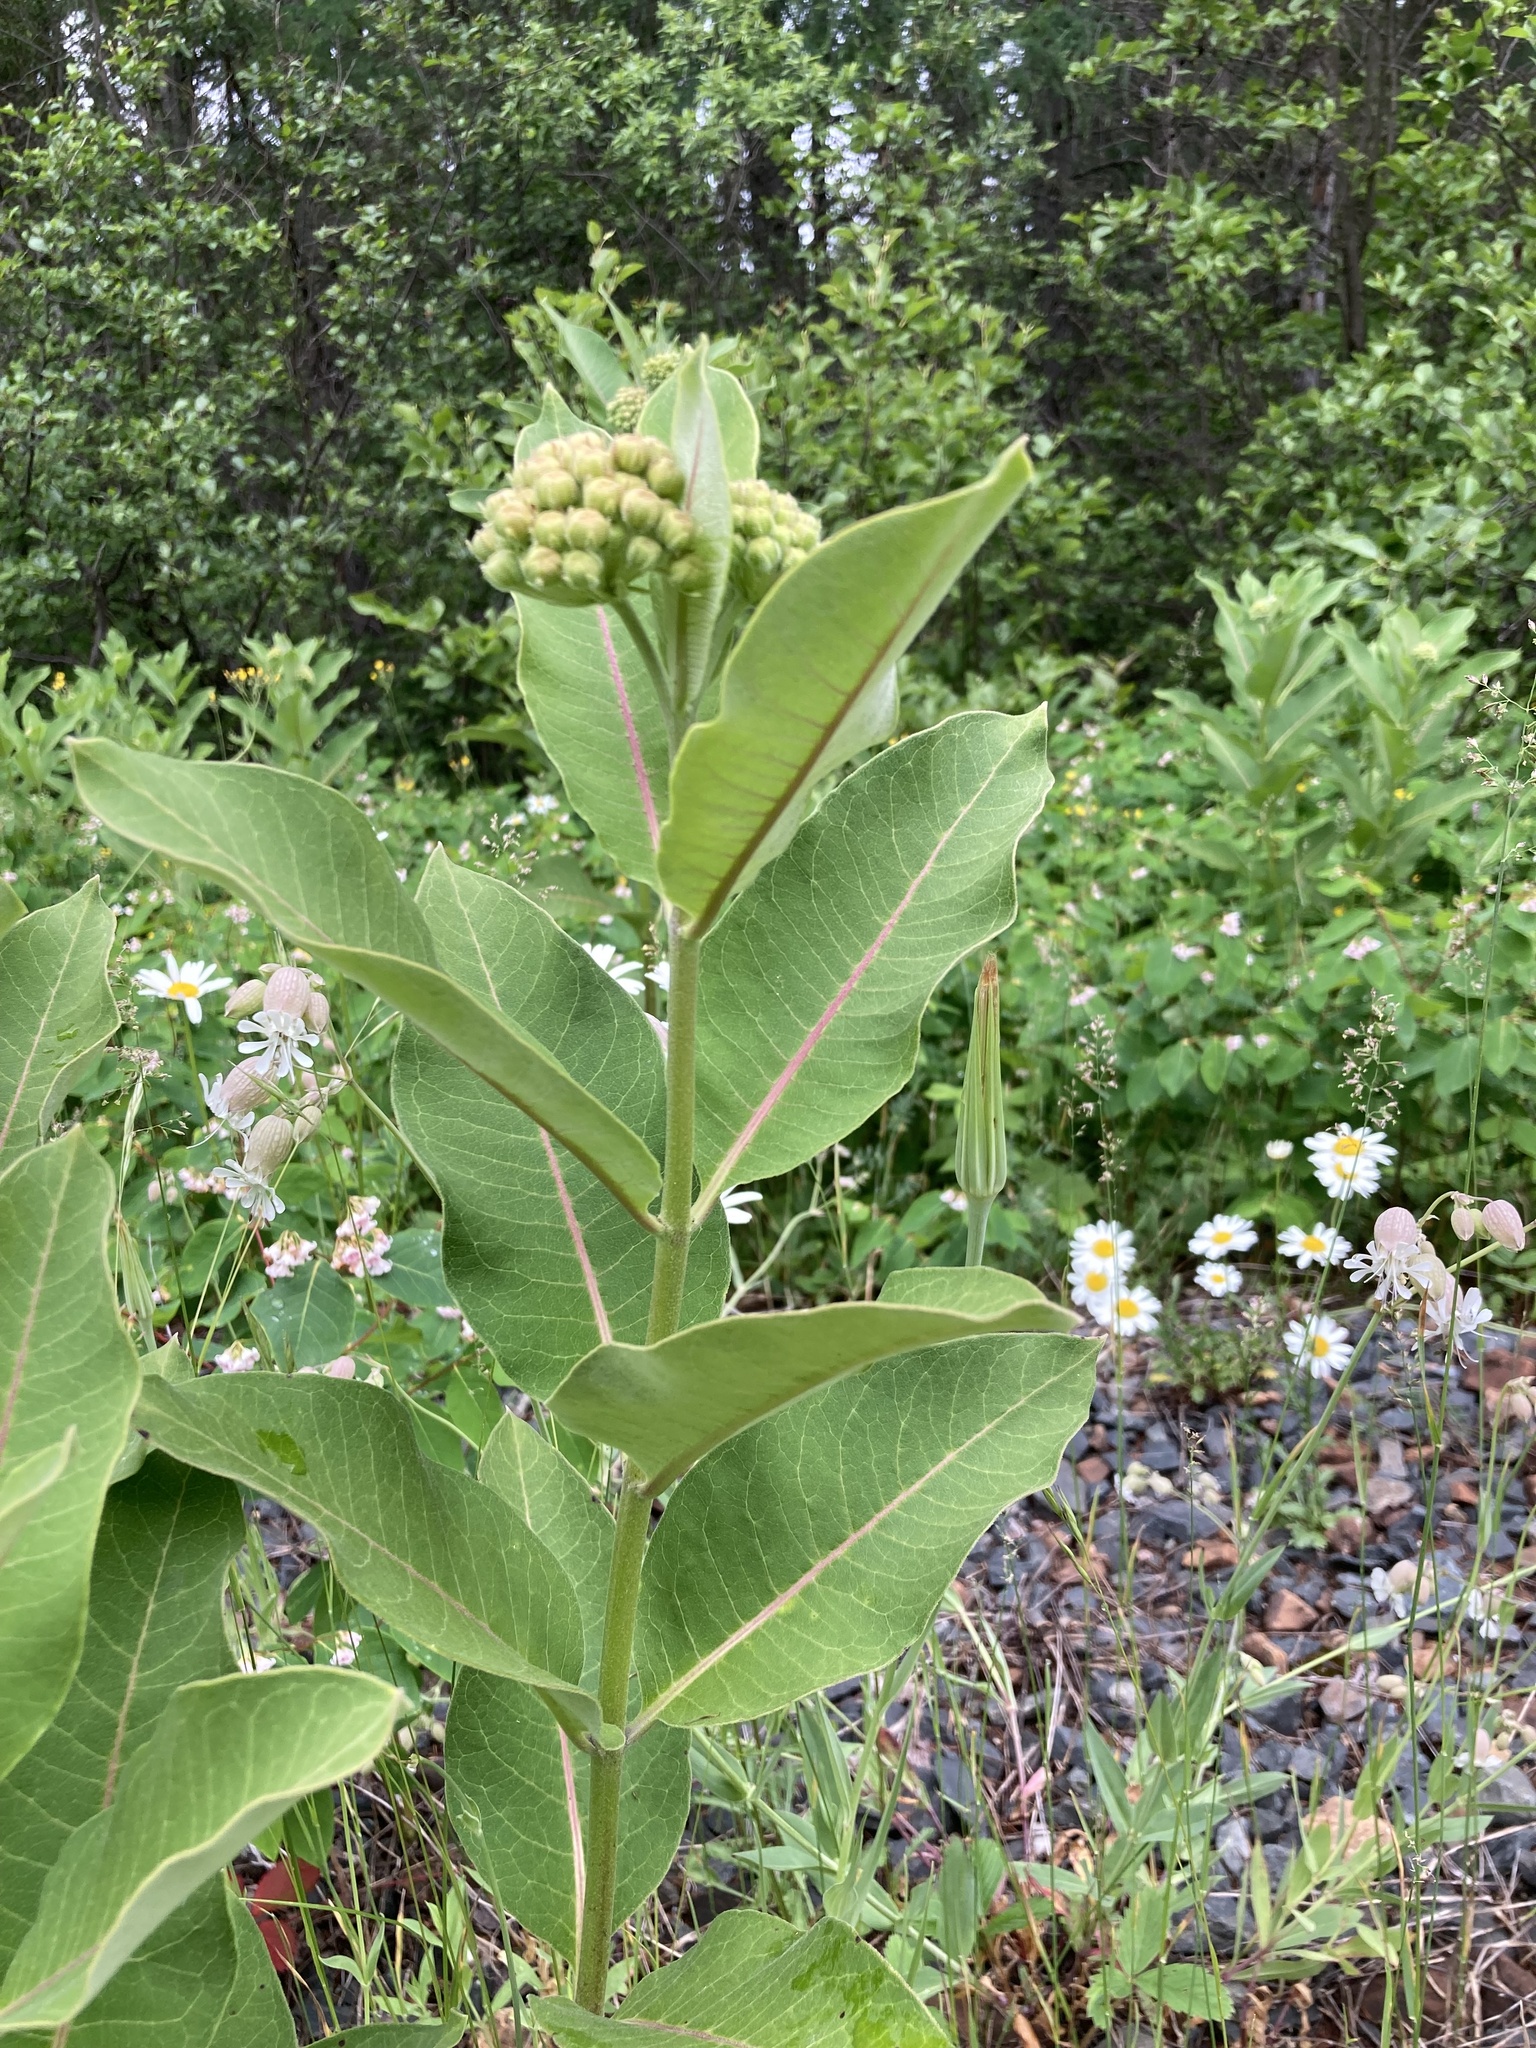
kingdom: Plantae
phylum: Tracheophyta
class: Magnoliopsida
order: Gentianales
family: Apocynaceae
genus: Asclepias
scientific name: Asclepias syriaca
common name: Common milkweed
